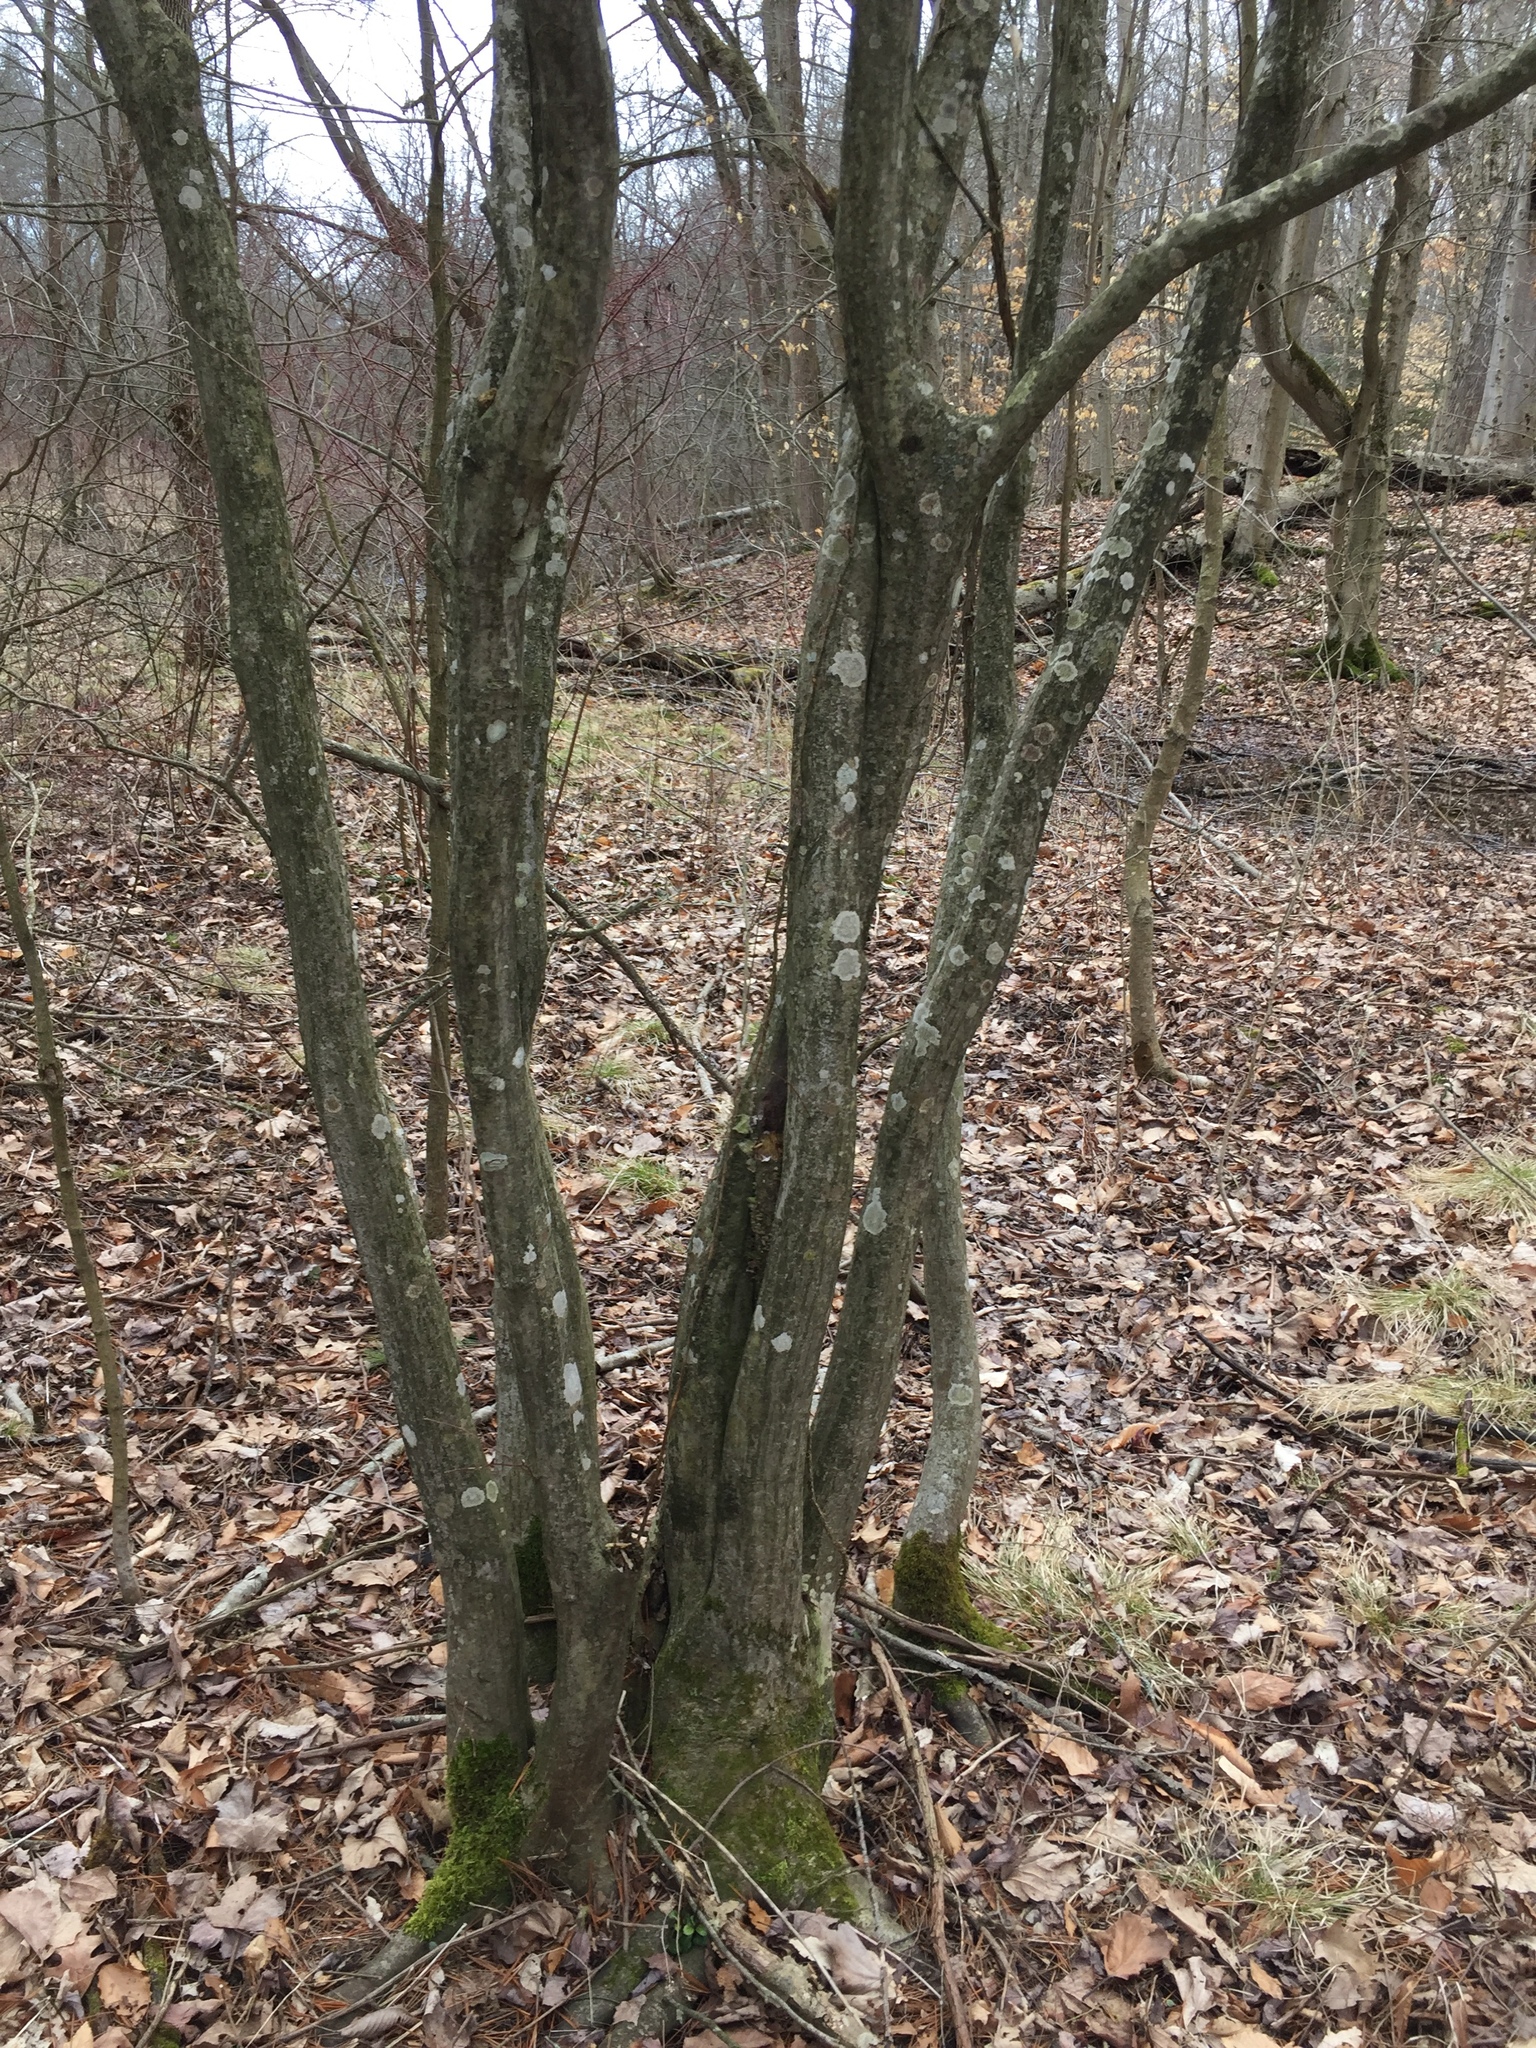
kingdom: Plantae
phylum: Tracheophyta
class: Magnoliopsida
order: Fagales
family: Betulaceae
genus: Carpinus
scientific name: Carpinus caroliniana
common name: American hornbeam
